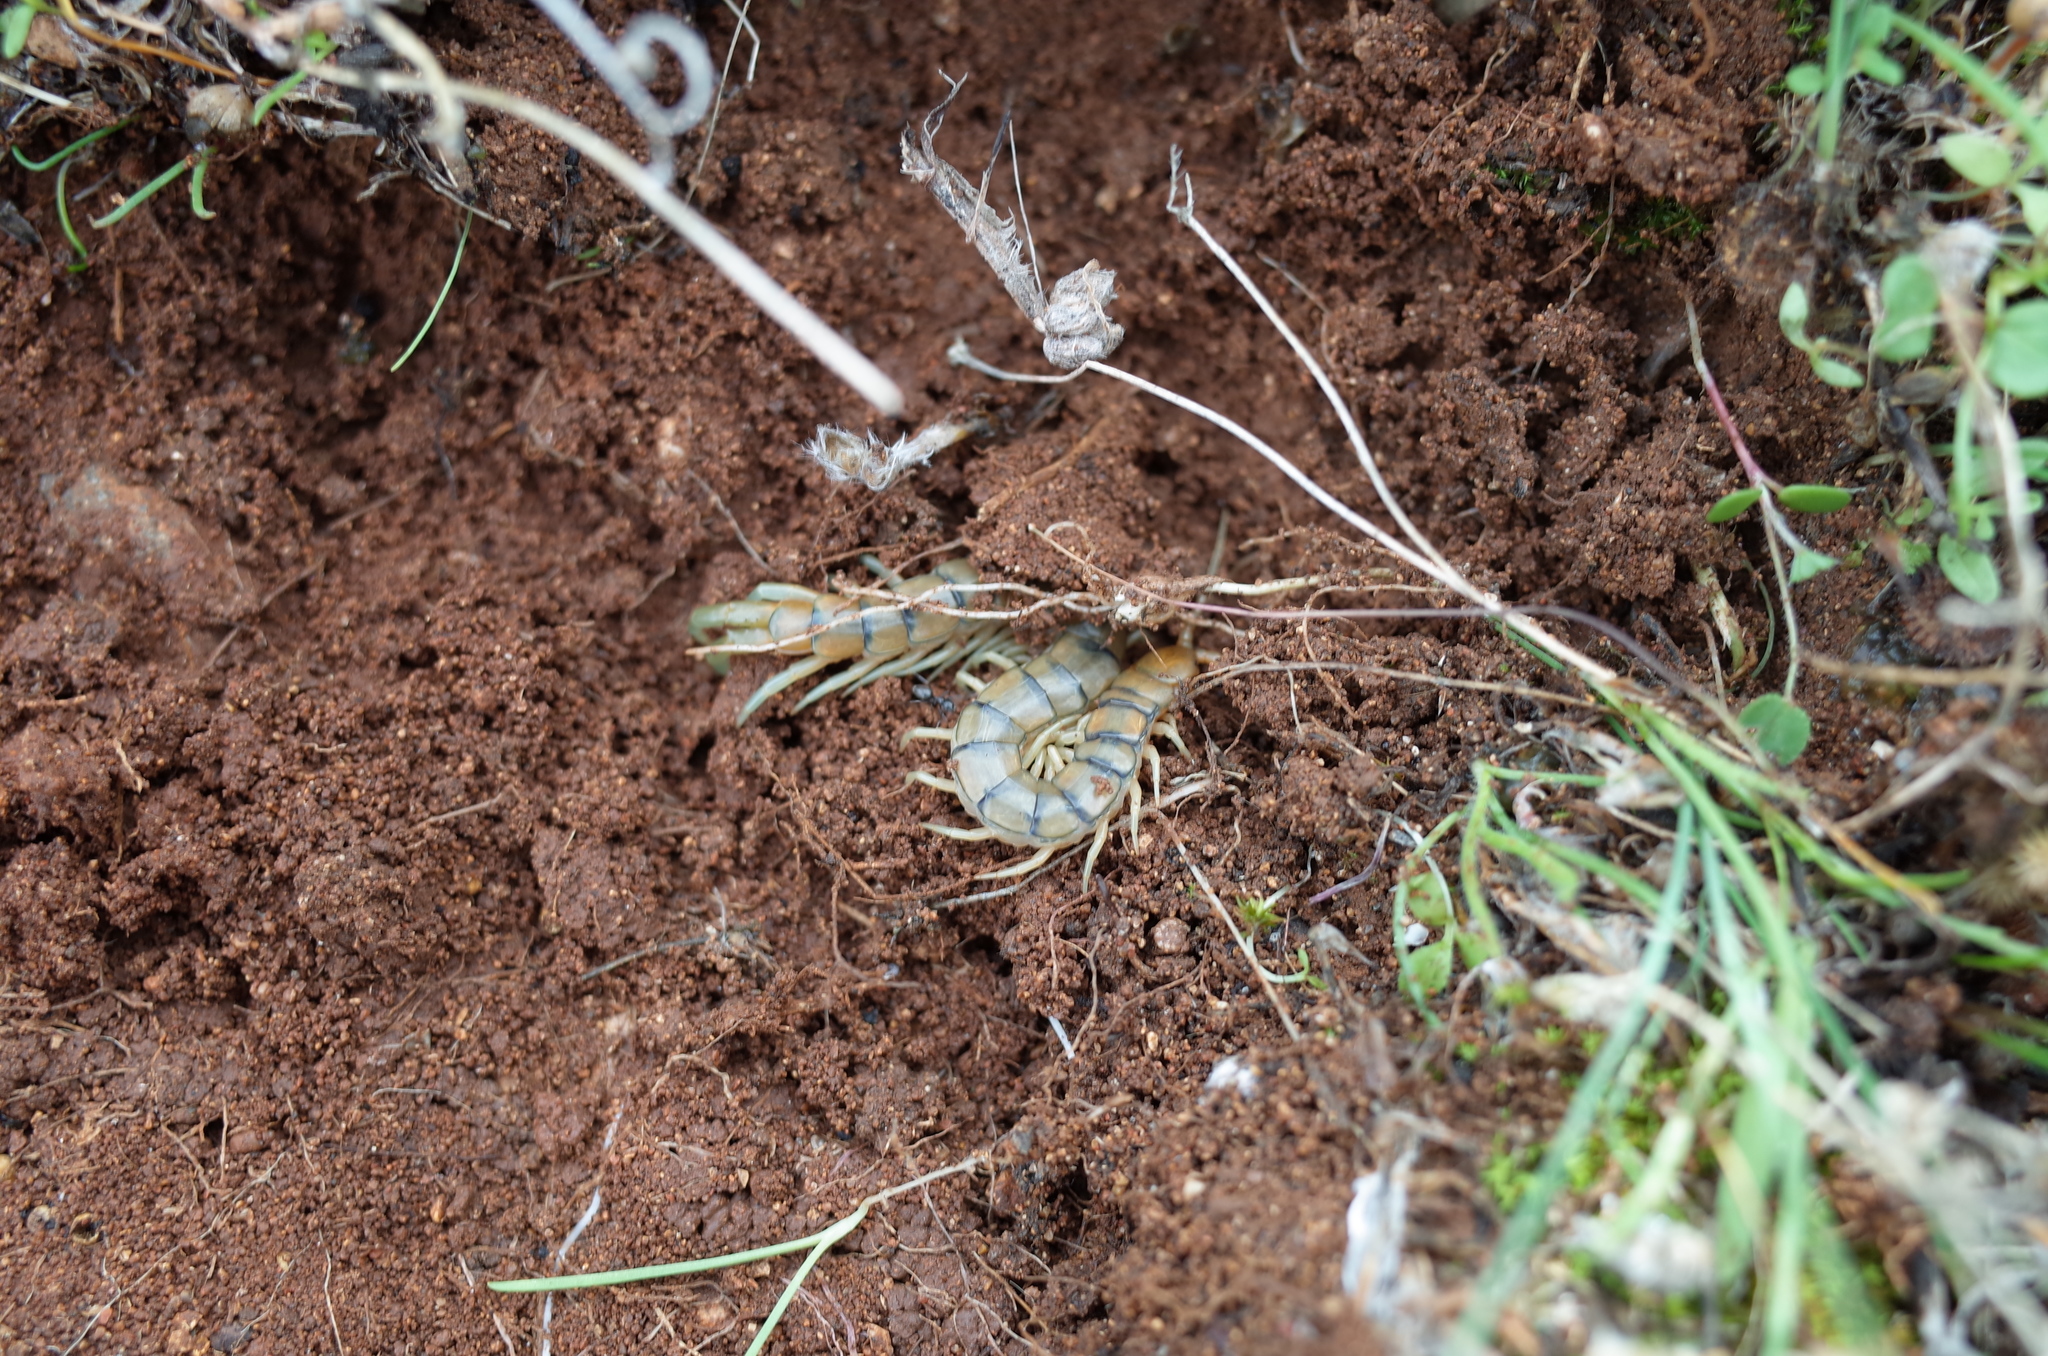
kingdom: Animalia
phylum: Arthropoda
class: Chilopoda
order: Scolopendromorpha
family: Scolopendridae
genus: Scolopendra
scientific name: Scolopendra cingulata
